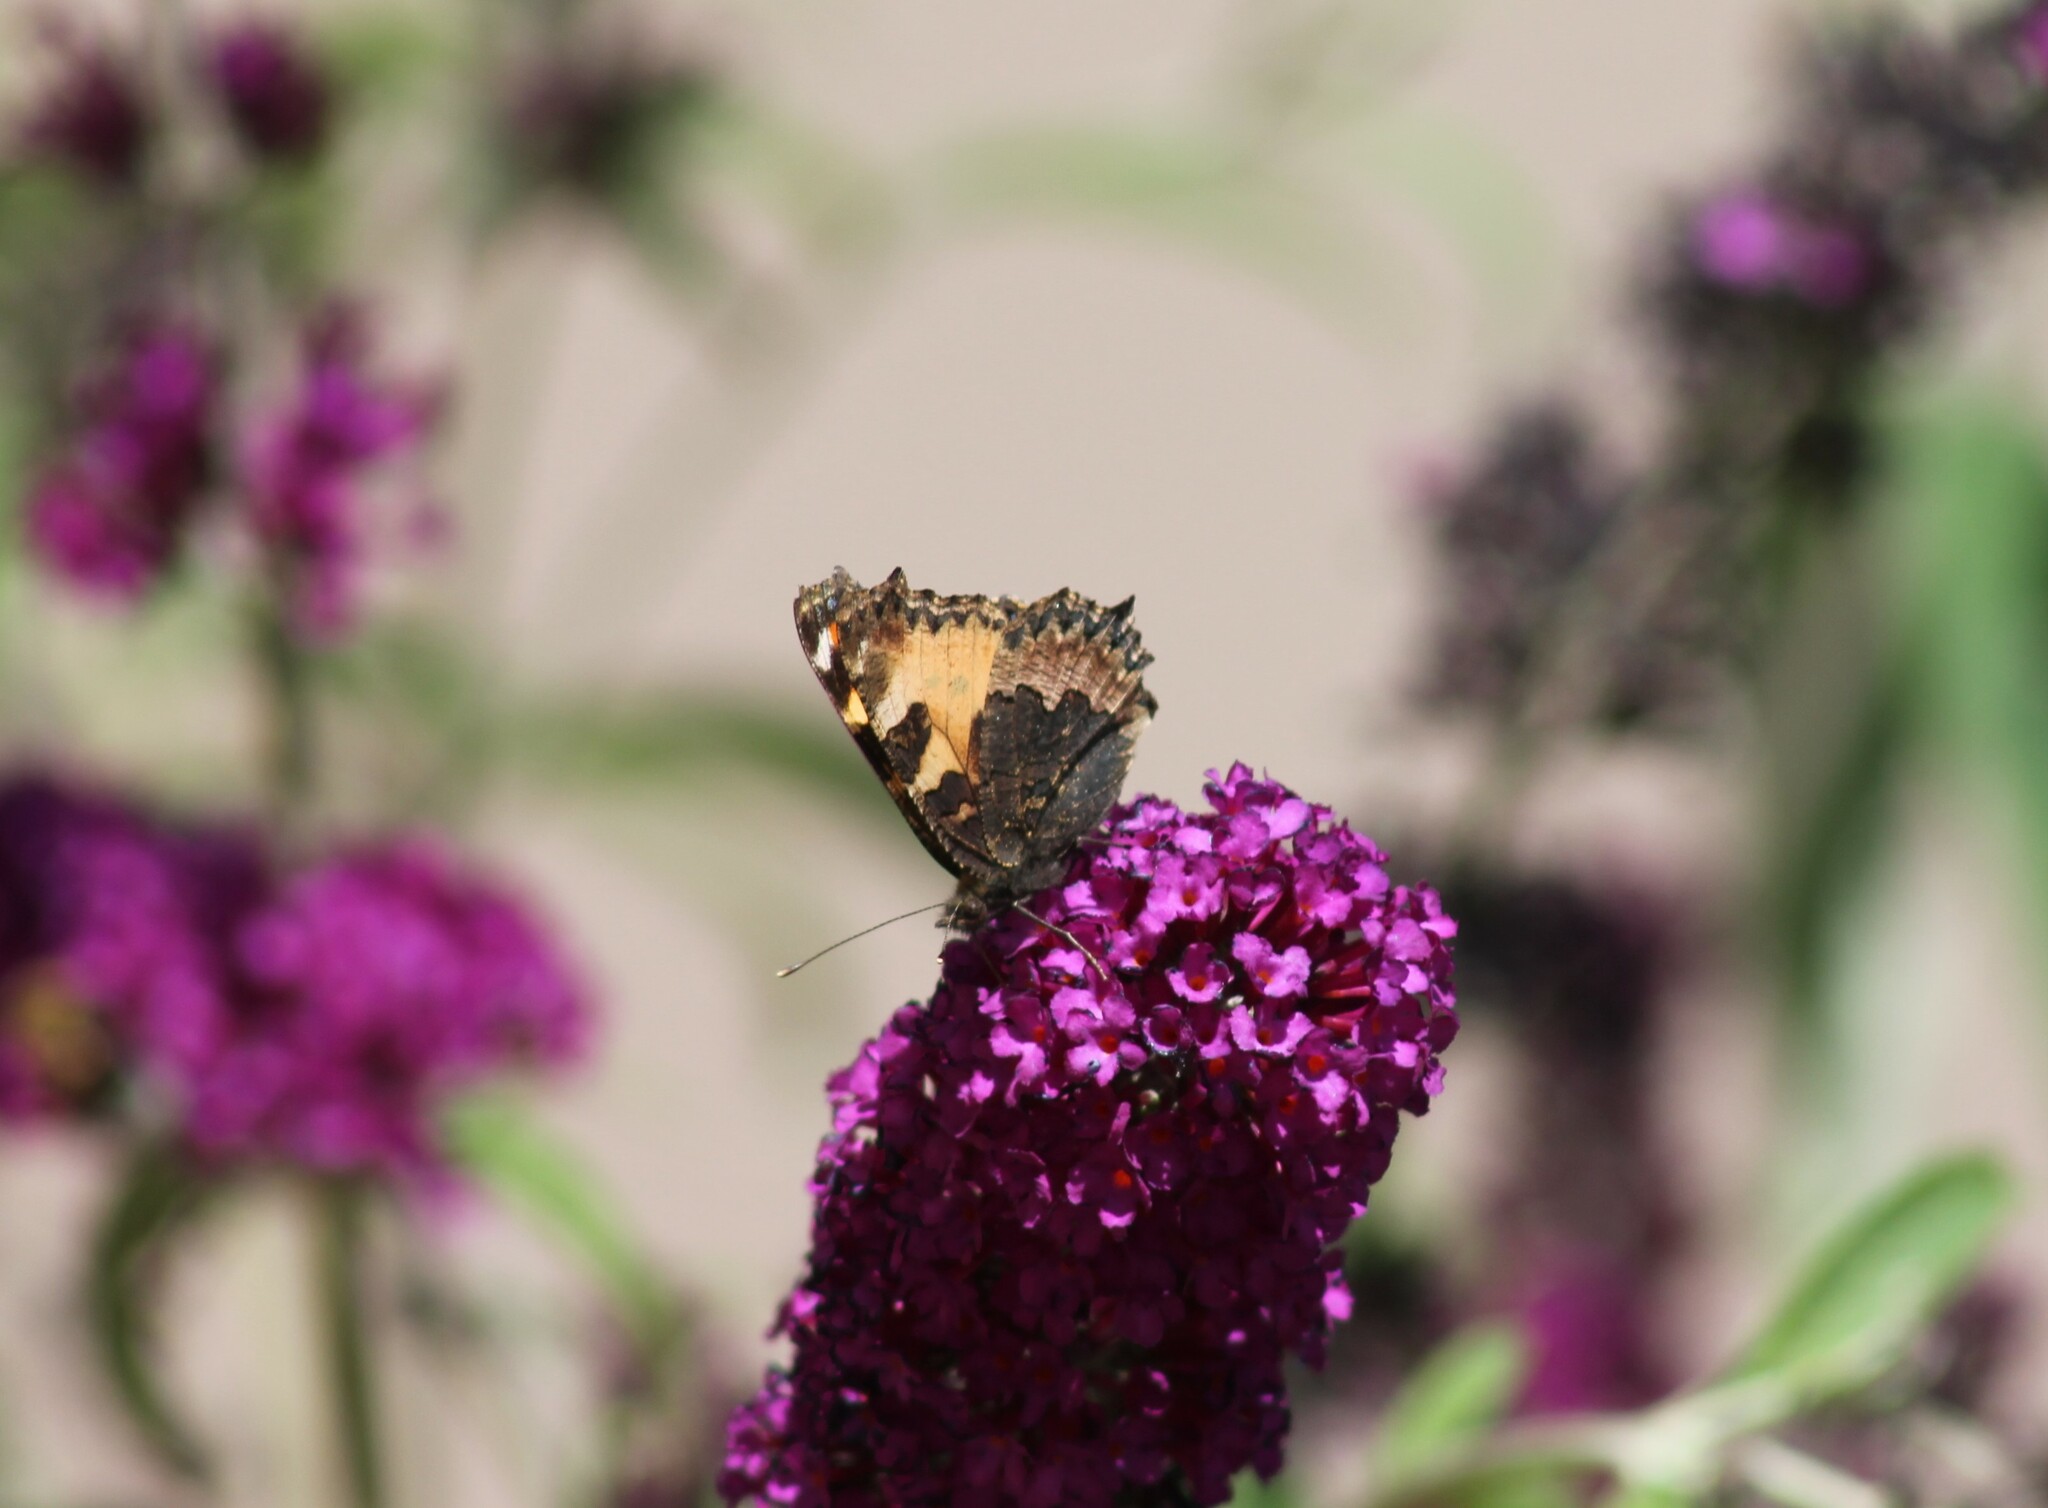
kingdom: Animalia
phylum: Arthropoda
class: Insecta
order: Lepidoptera
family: Nymphalidae
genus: Aglais
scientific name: Aglais urticae
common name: Small tortoiseshell
